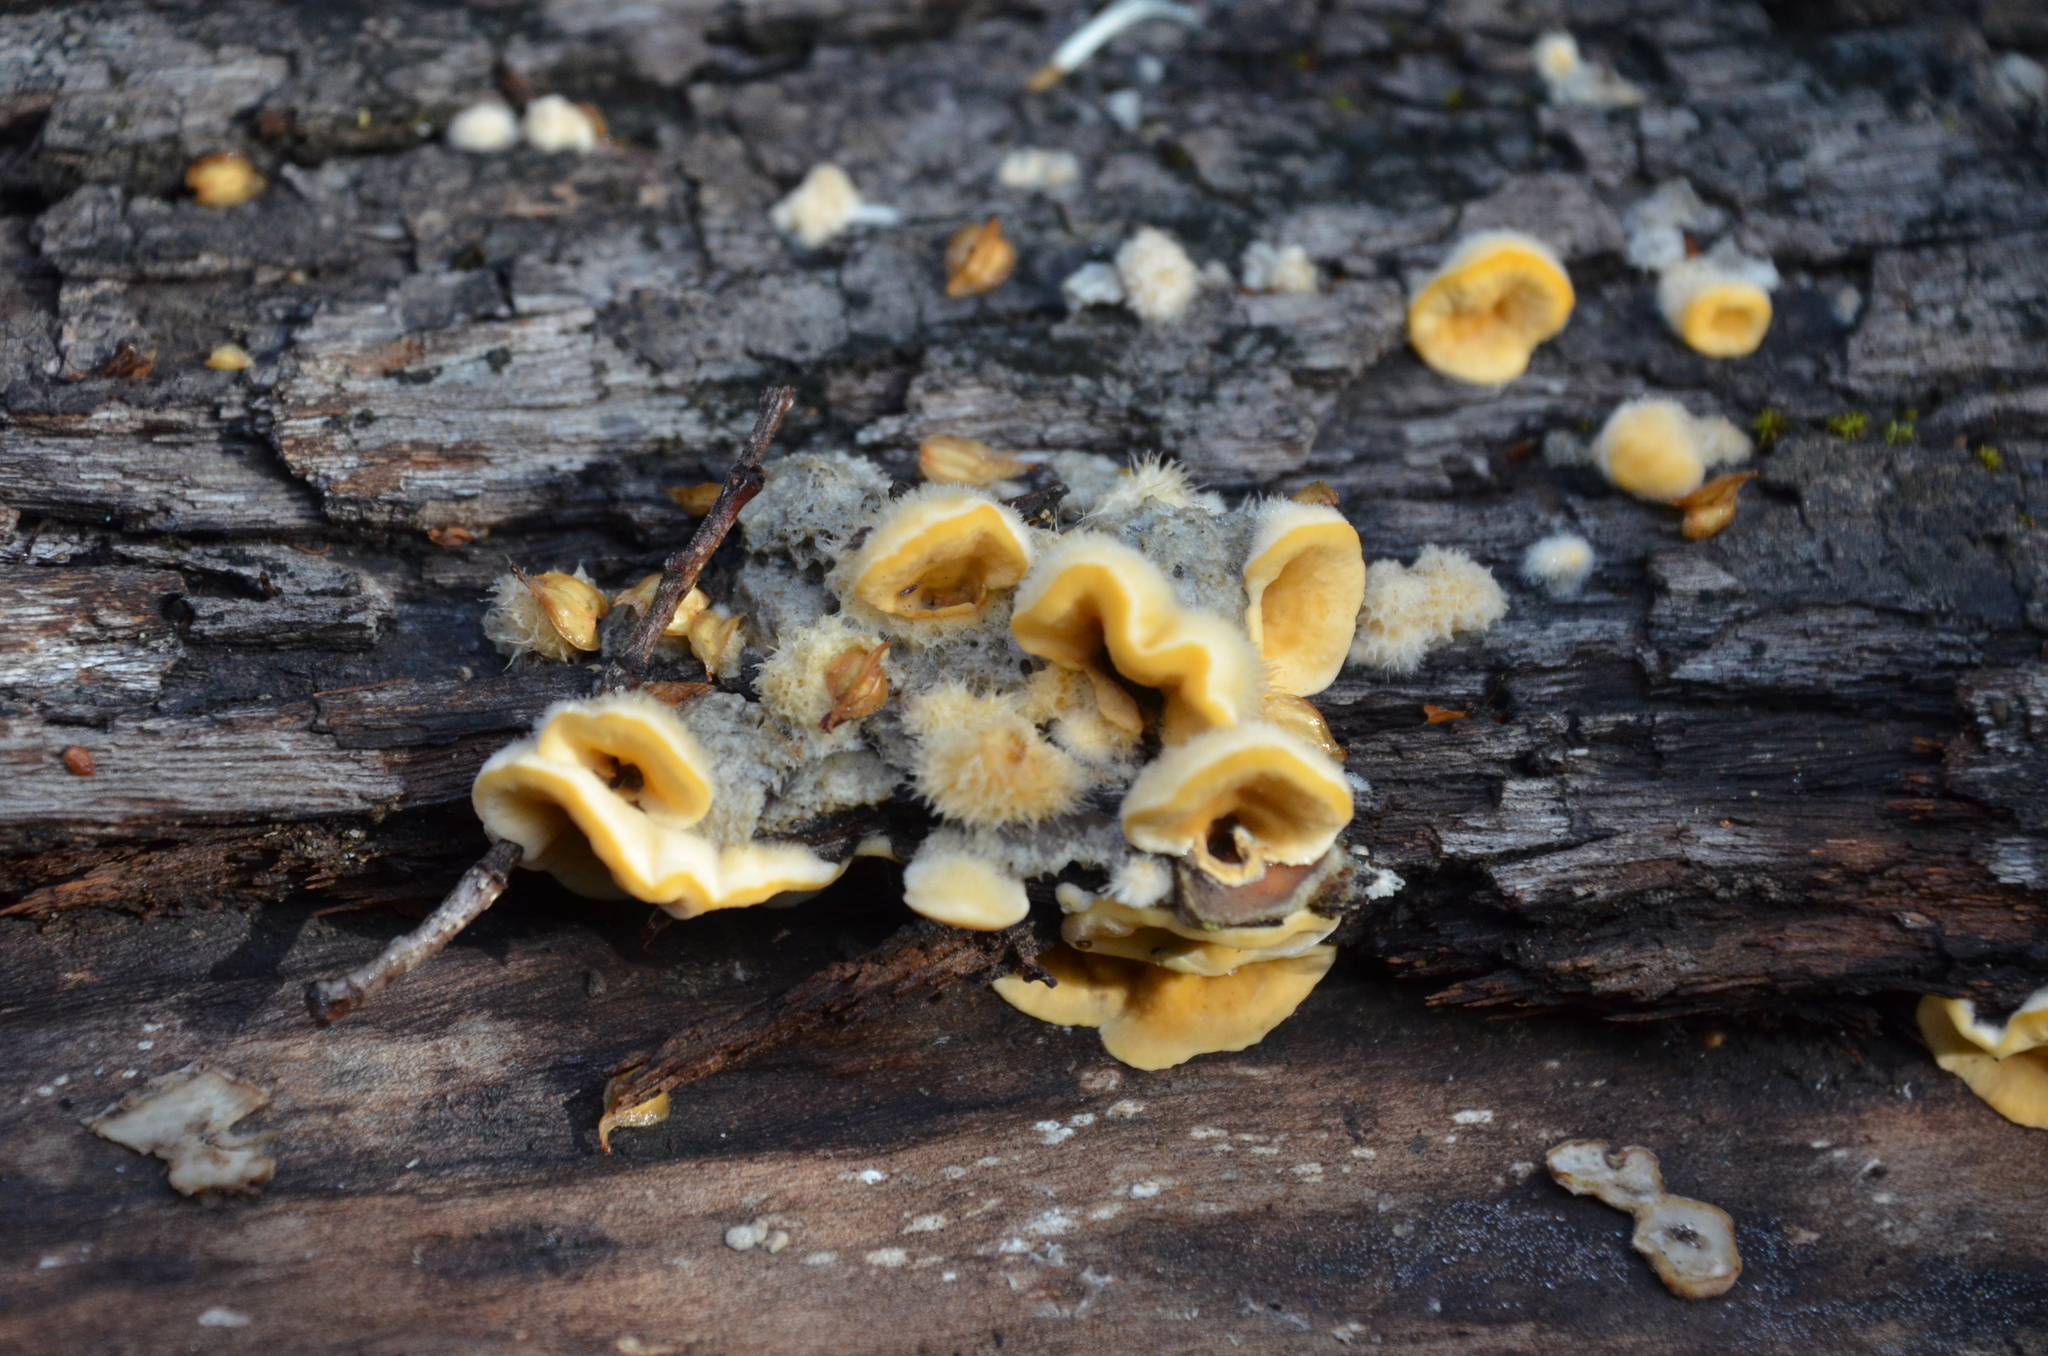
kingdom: Fungi
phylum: Basidiomycota
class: Agaricomycetes
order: Russulales
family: Stereaceae
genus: Stereum
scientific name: Stereum hirsutum
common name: Hairy curtain crust
